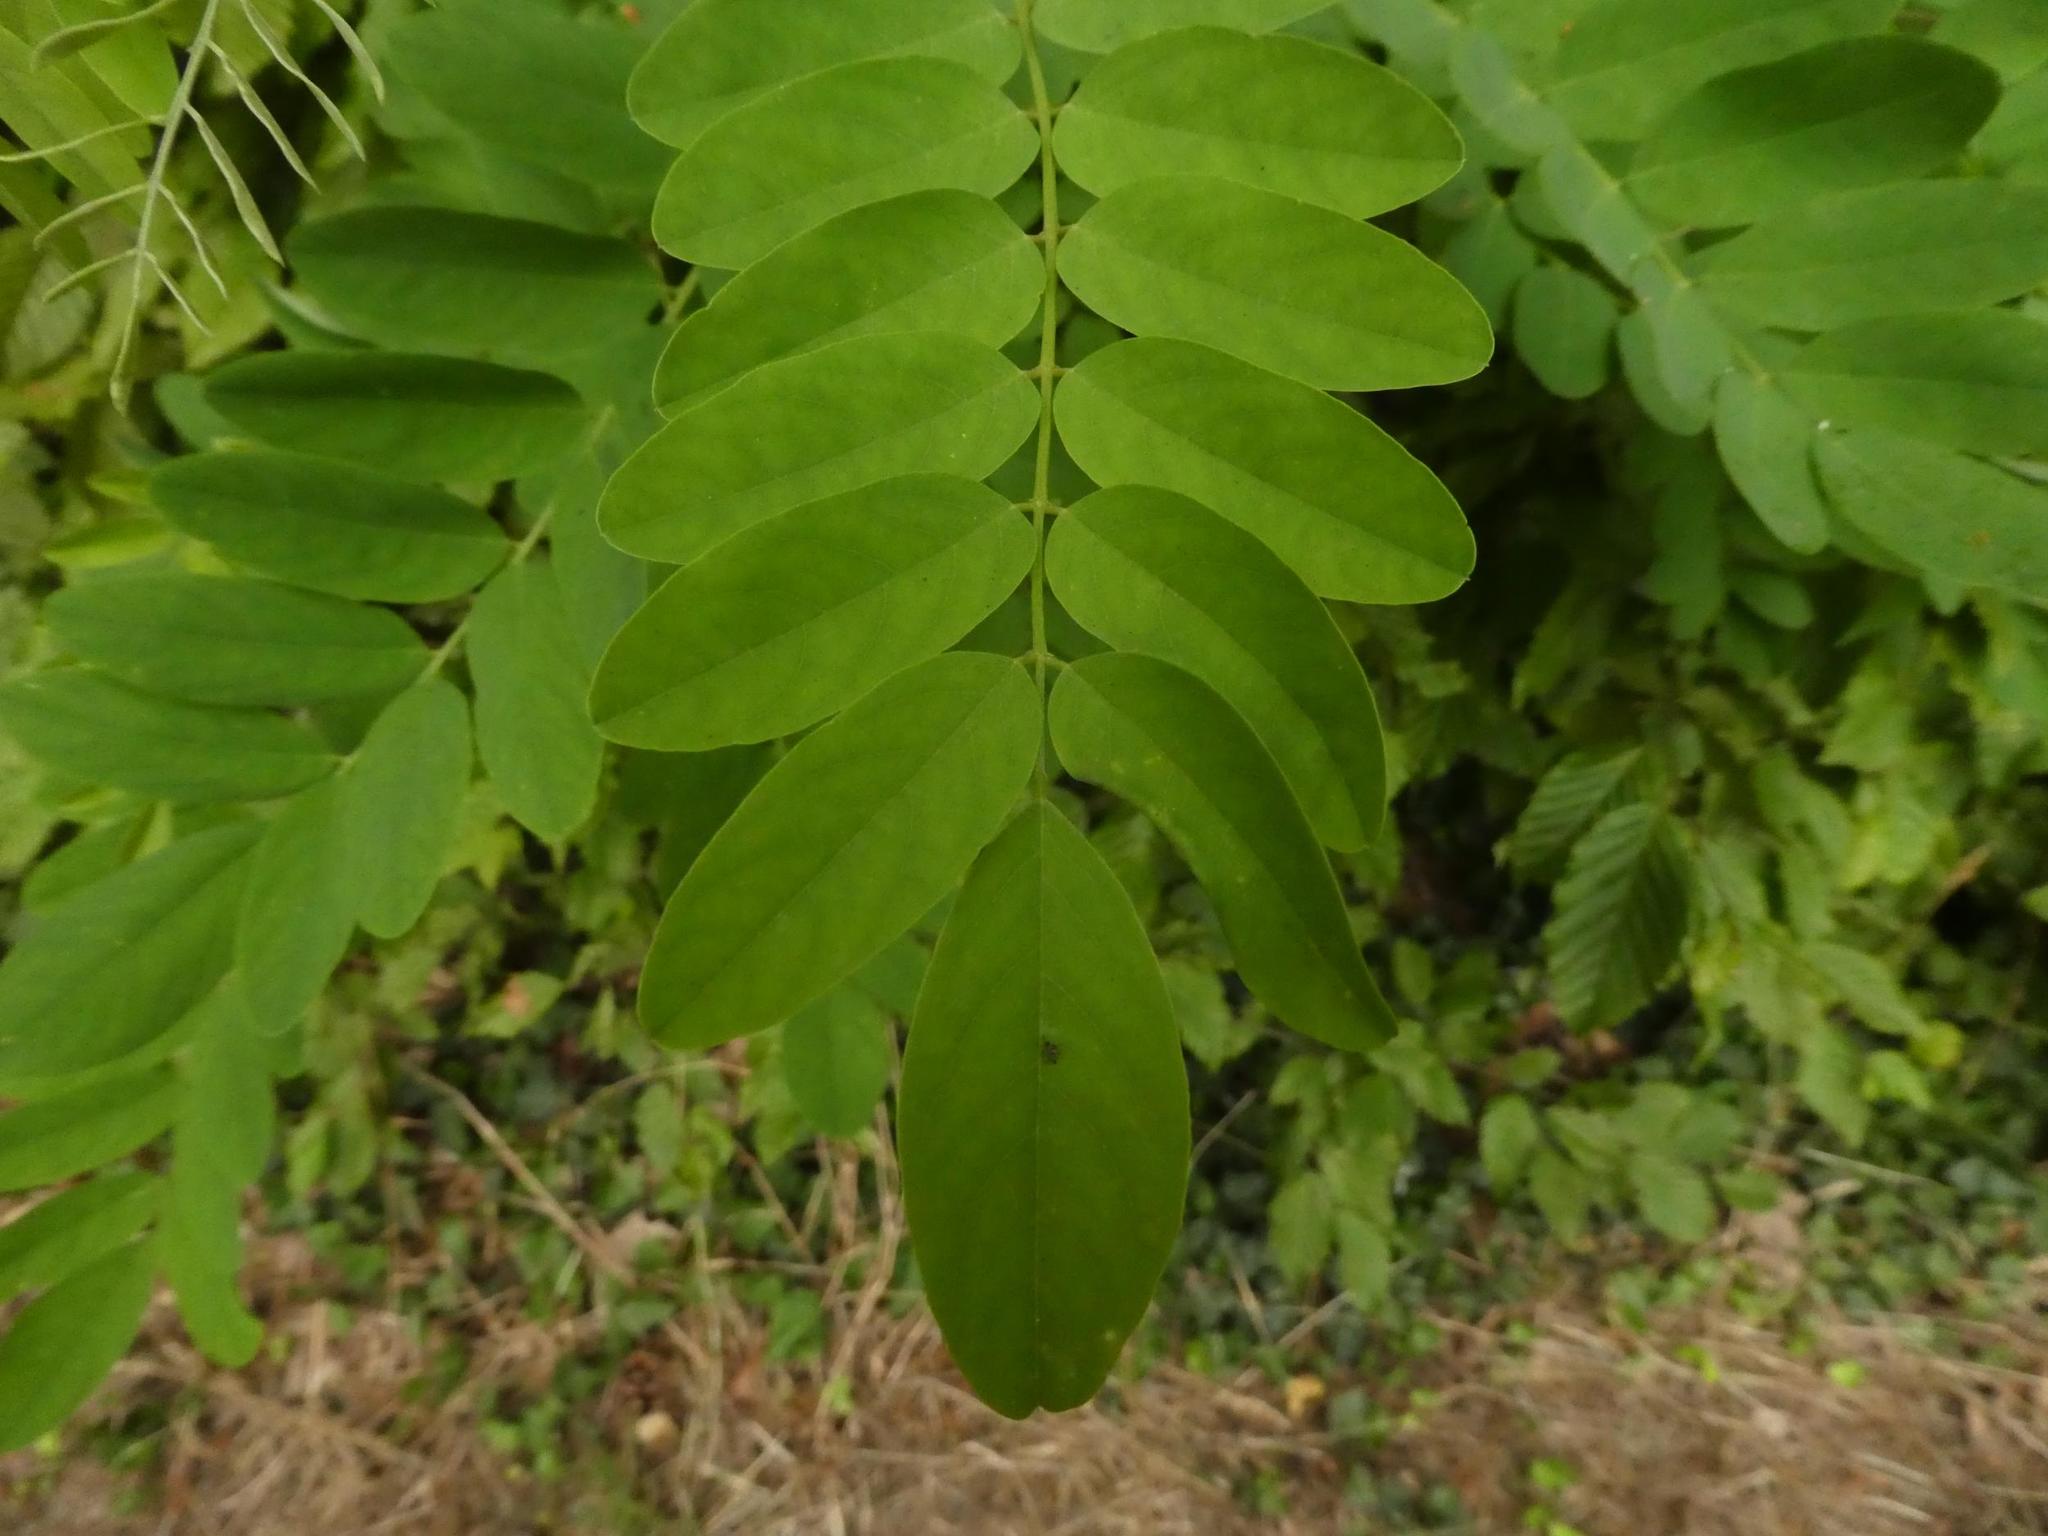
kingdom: Plantae
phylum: Tracheophyta
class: Magnoliopsida
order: Fabales
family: Fabaceae
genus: Robinia
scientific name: Robinia pseudoacacia
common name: Black locust
